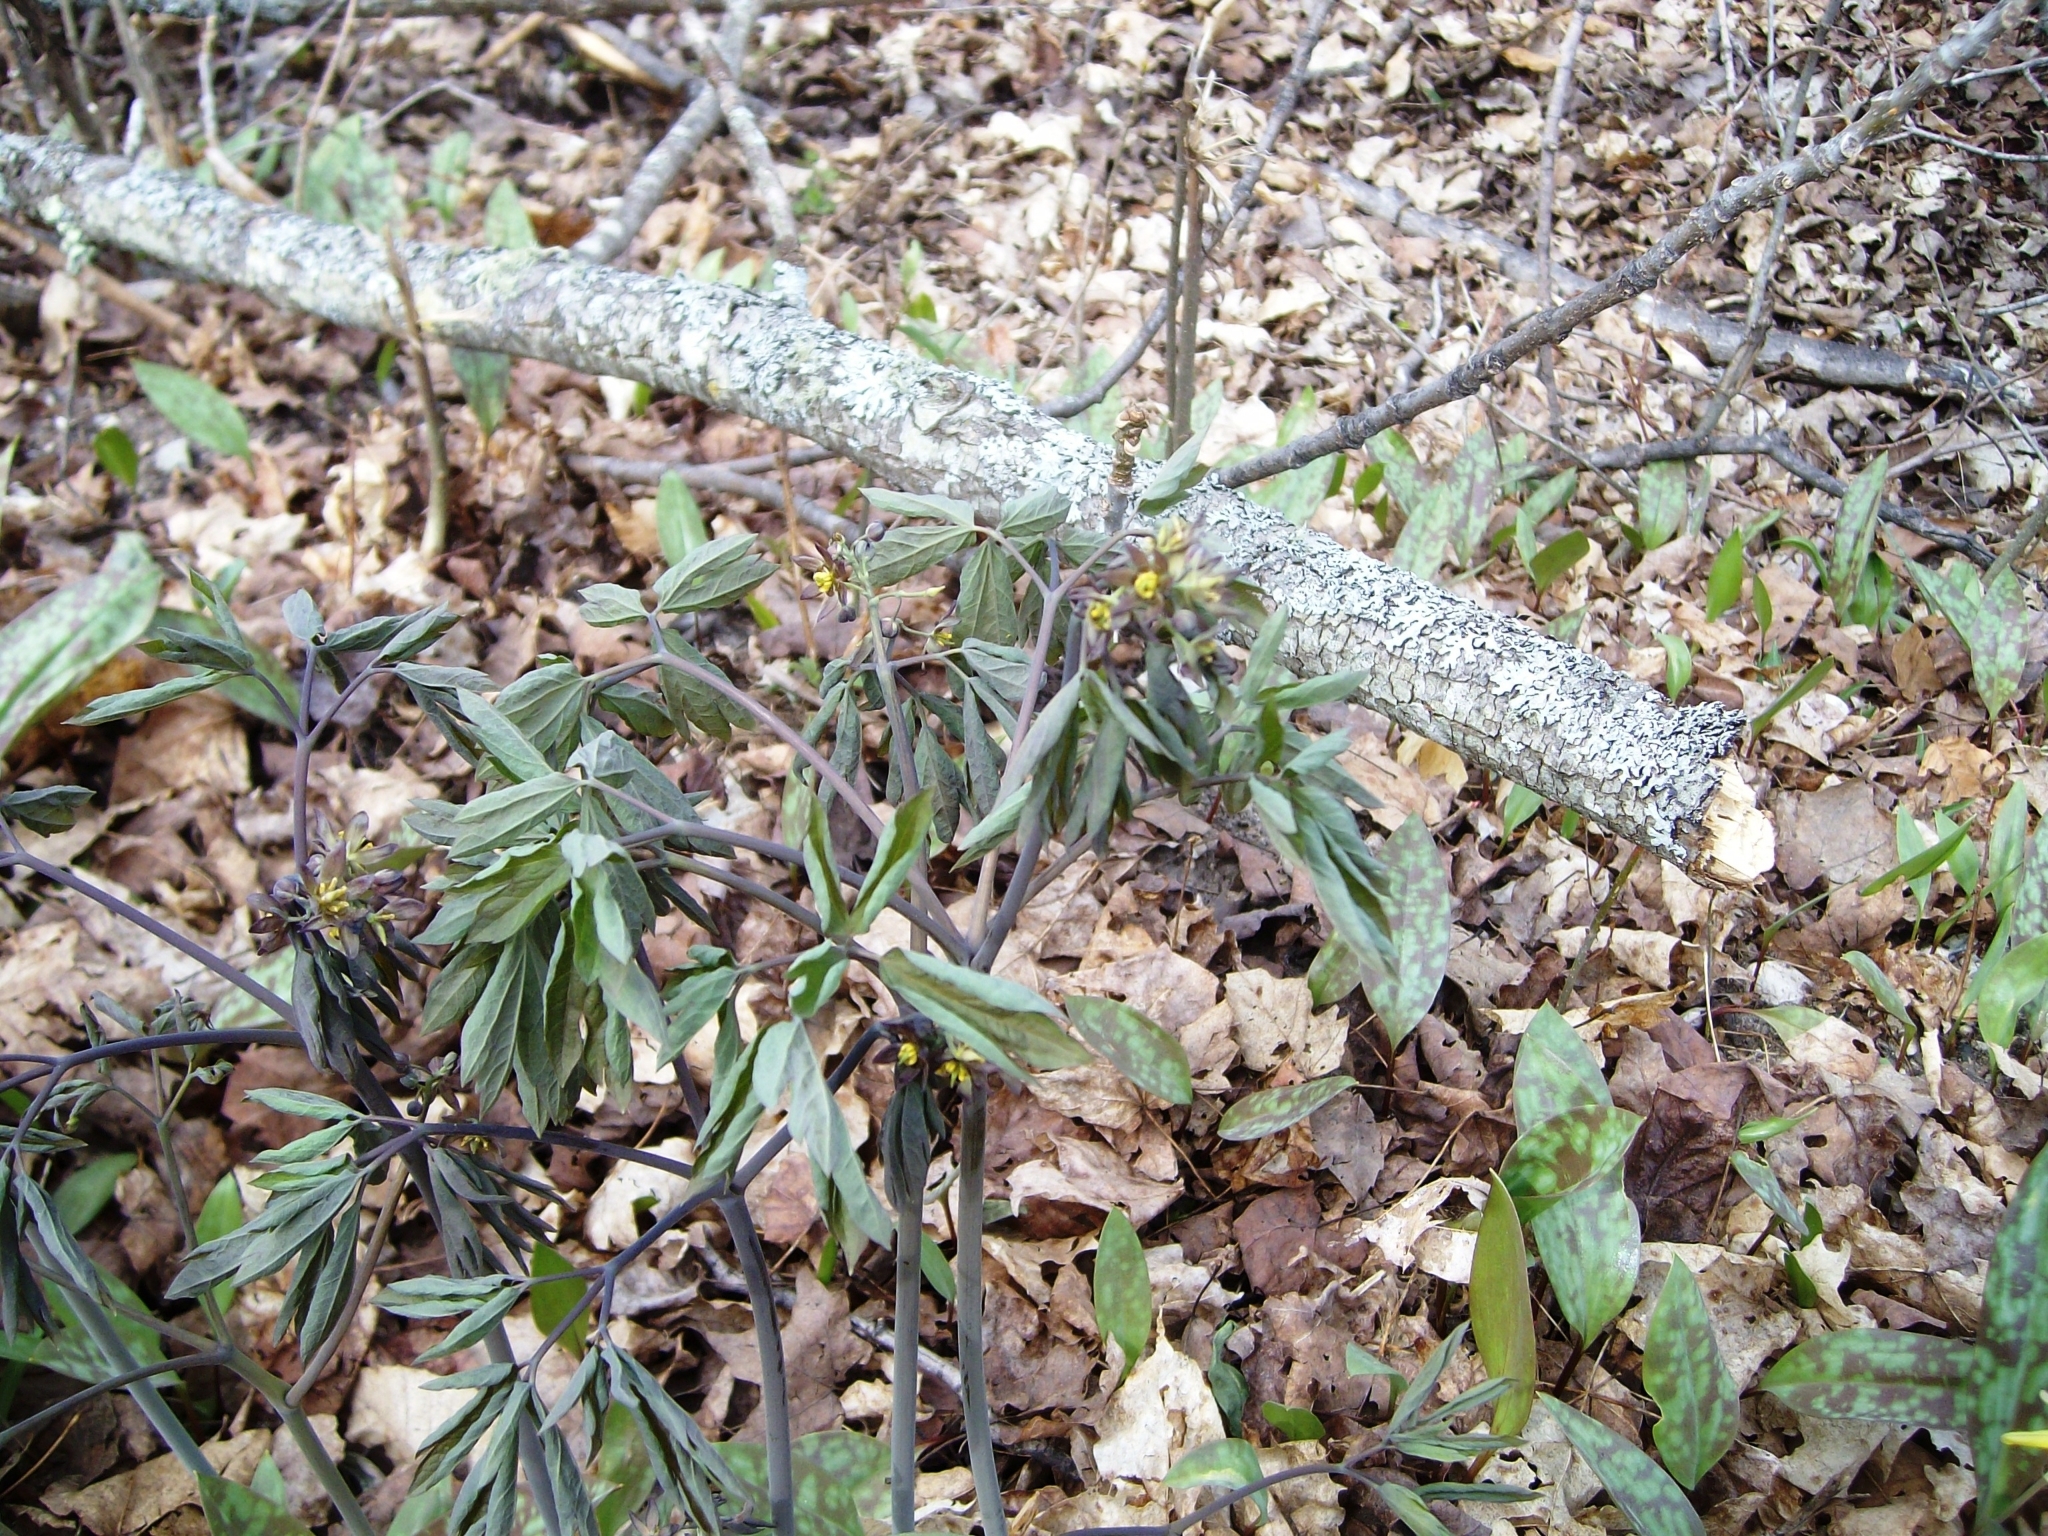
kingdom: Plantae
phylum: Tracheophyta
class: Magnoliopsida
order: Ranunculales
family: Berberidaceae
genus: Caulophyllum
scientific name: Caulophyllum giganteum
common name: Blue cohosh
